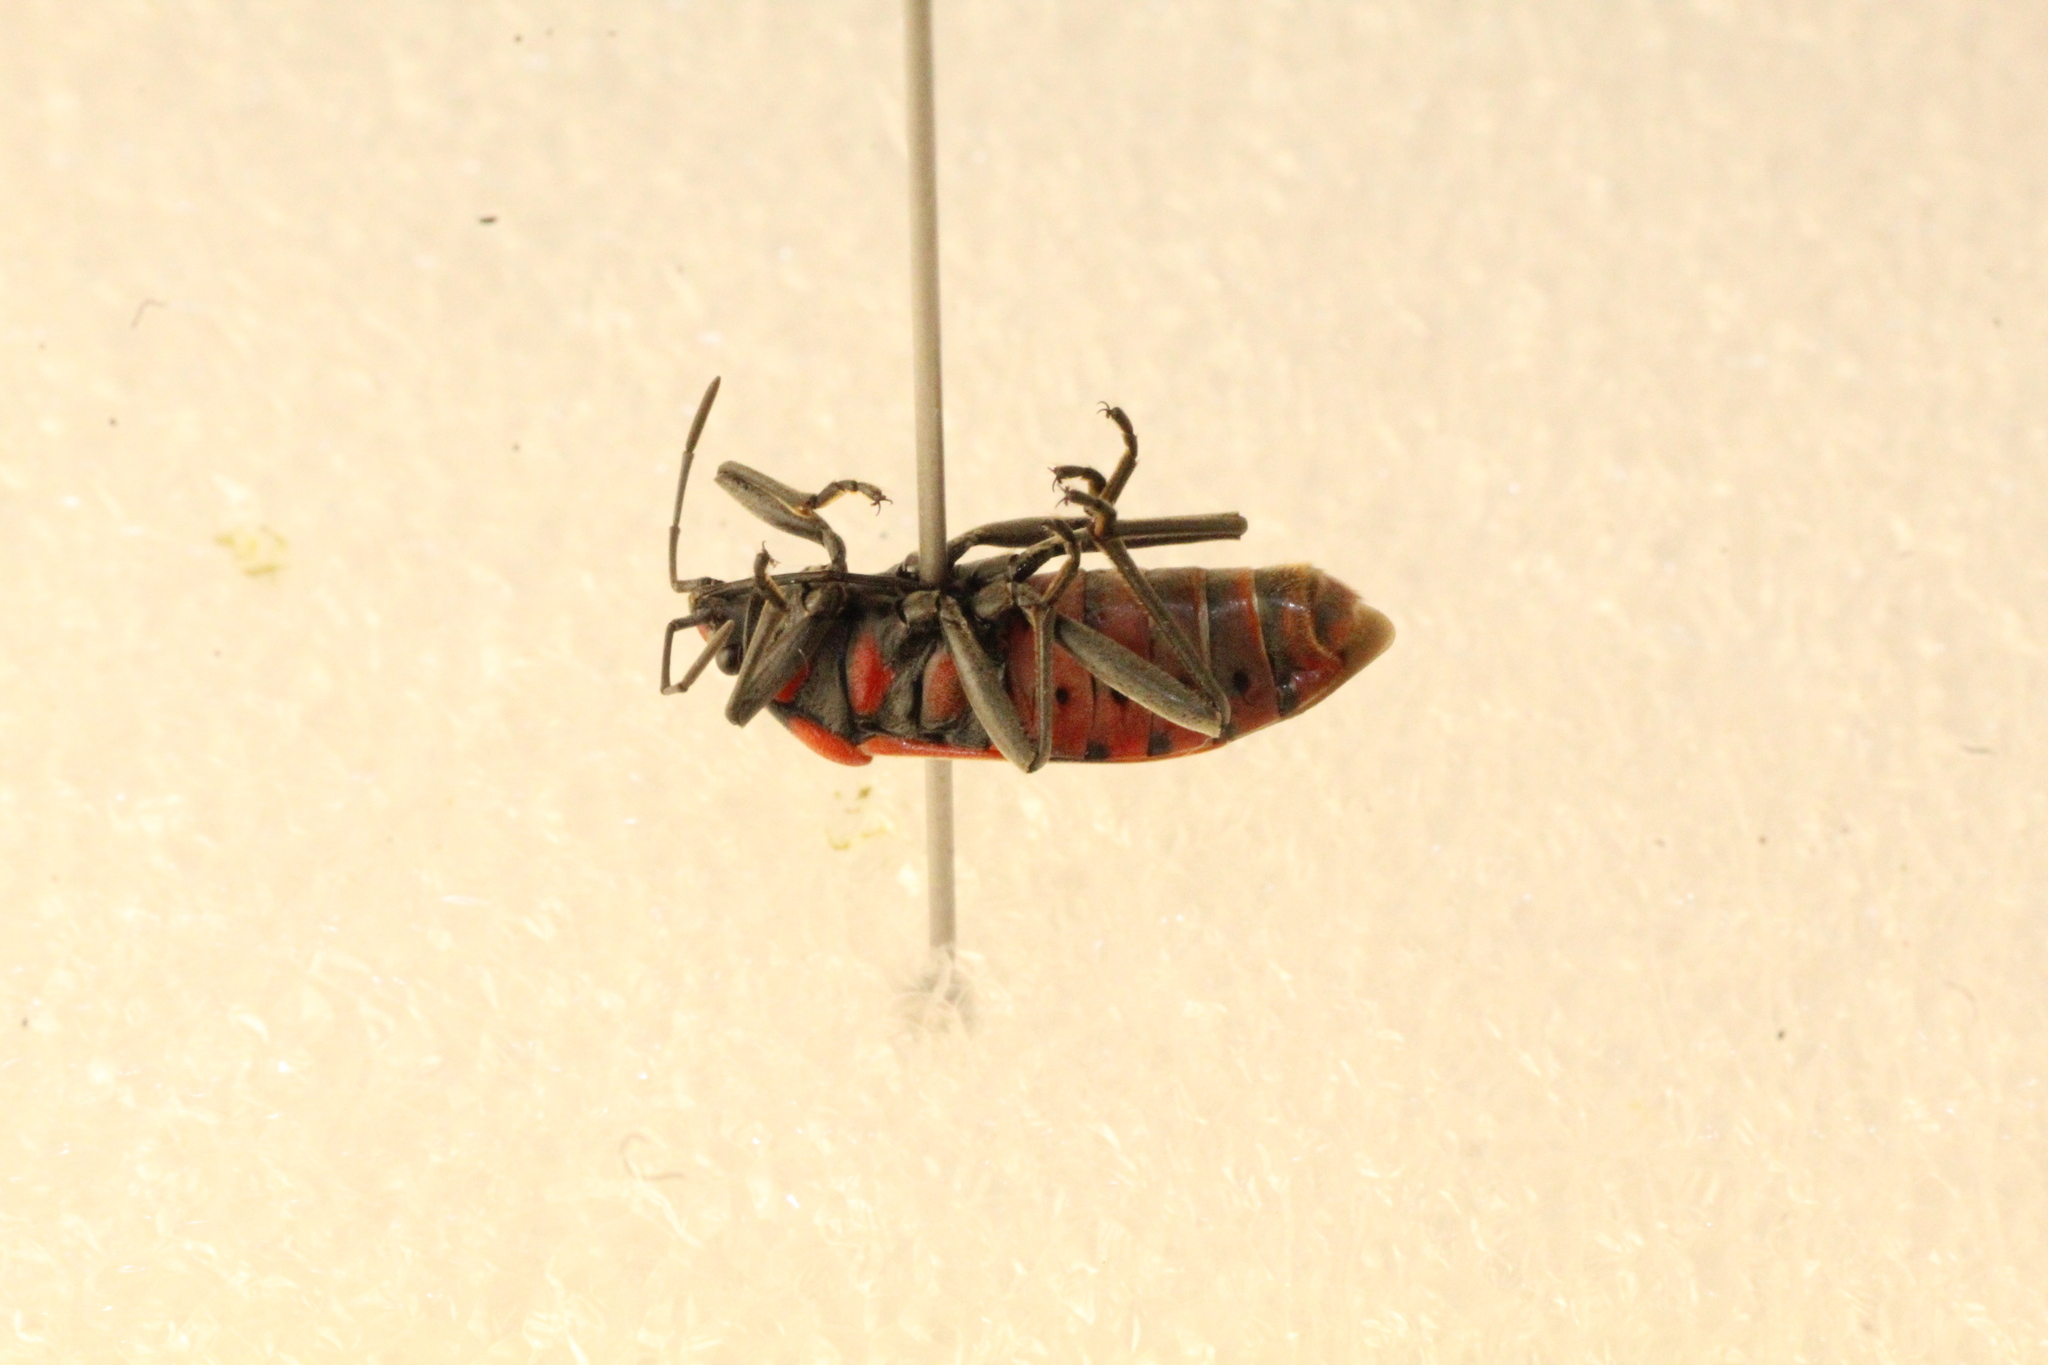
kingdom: Animalia
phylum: Arthropoda
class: Insecta
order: Hemiptera
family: Lygaeidae
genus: Spilostethus
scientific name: Spilostethus pandurus
